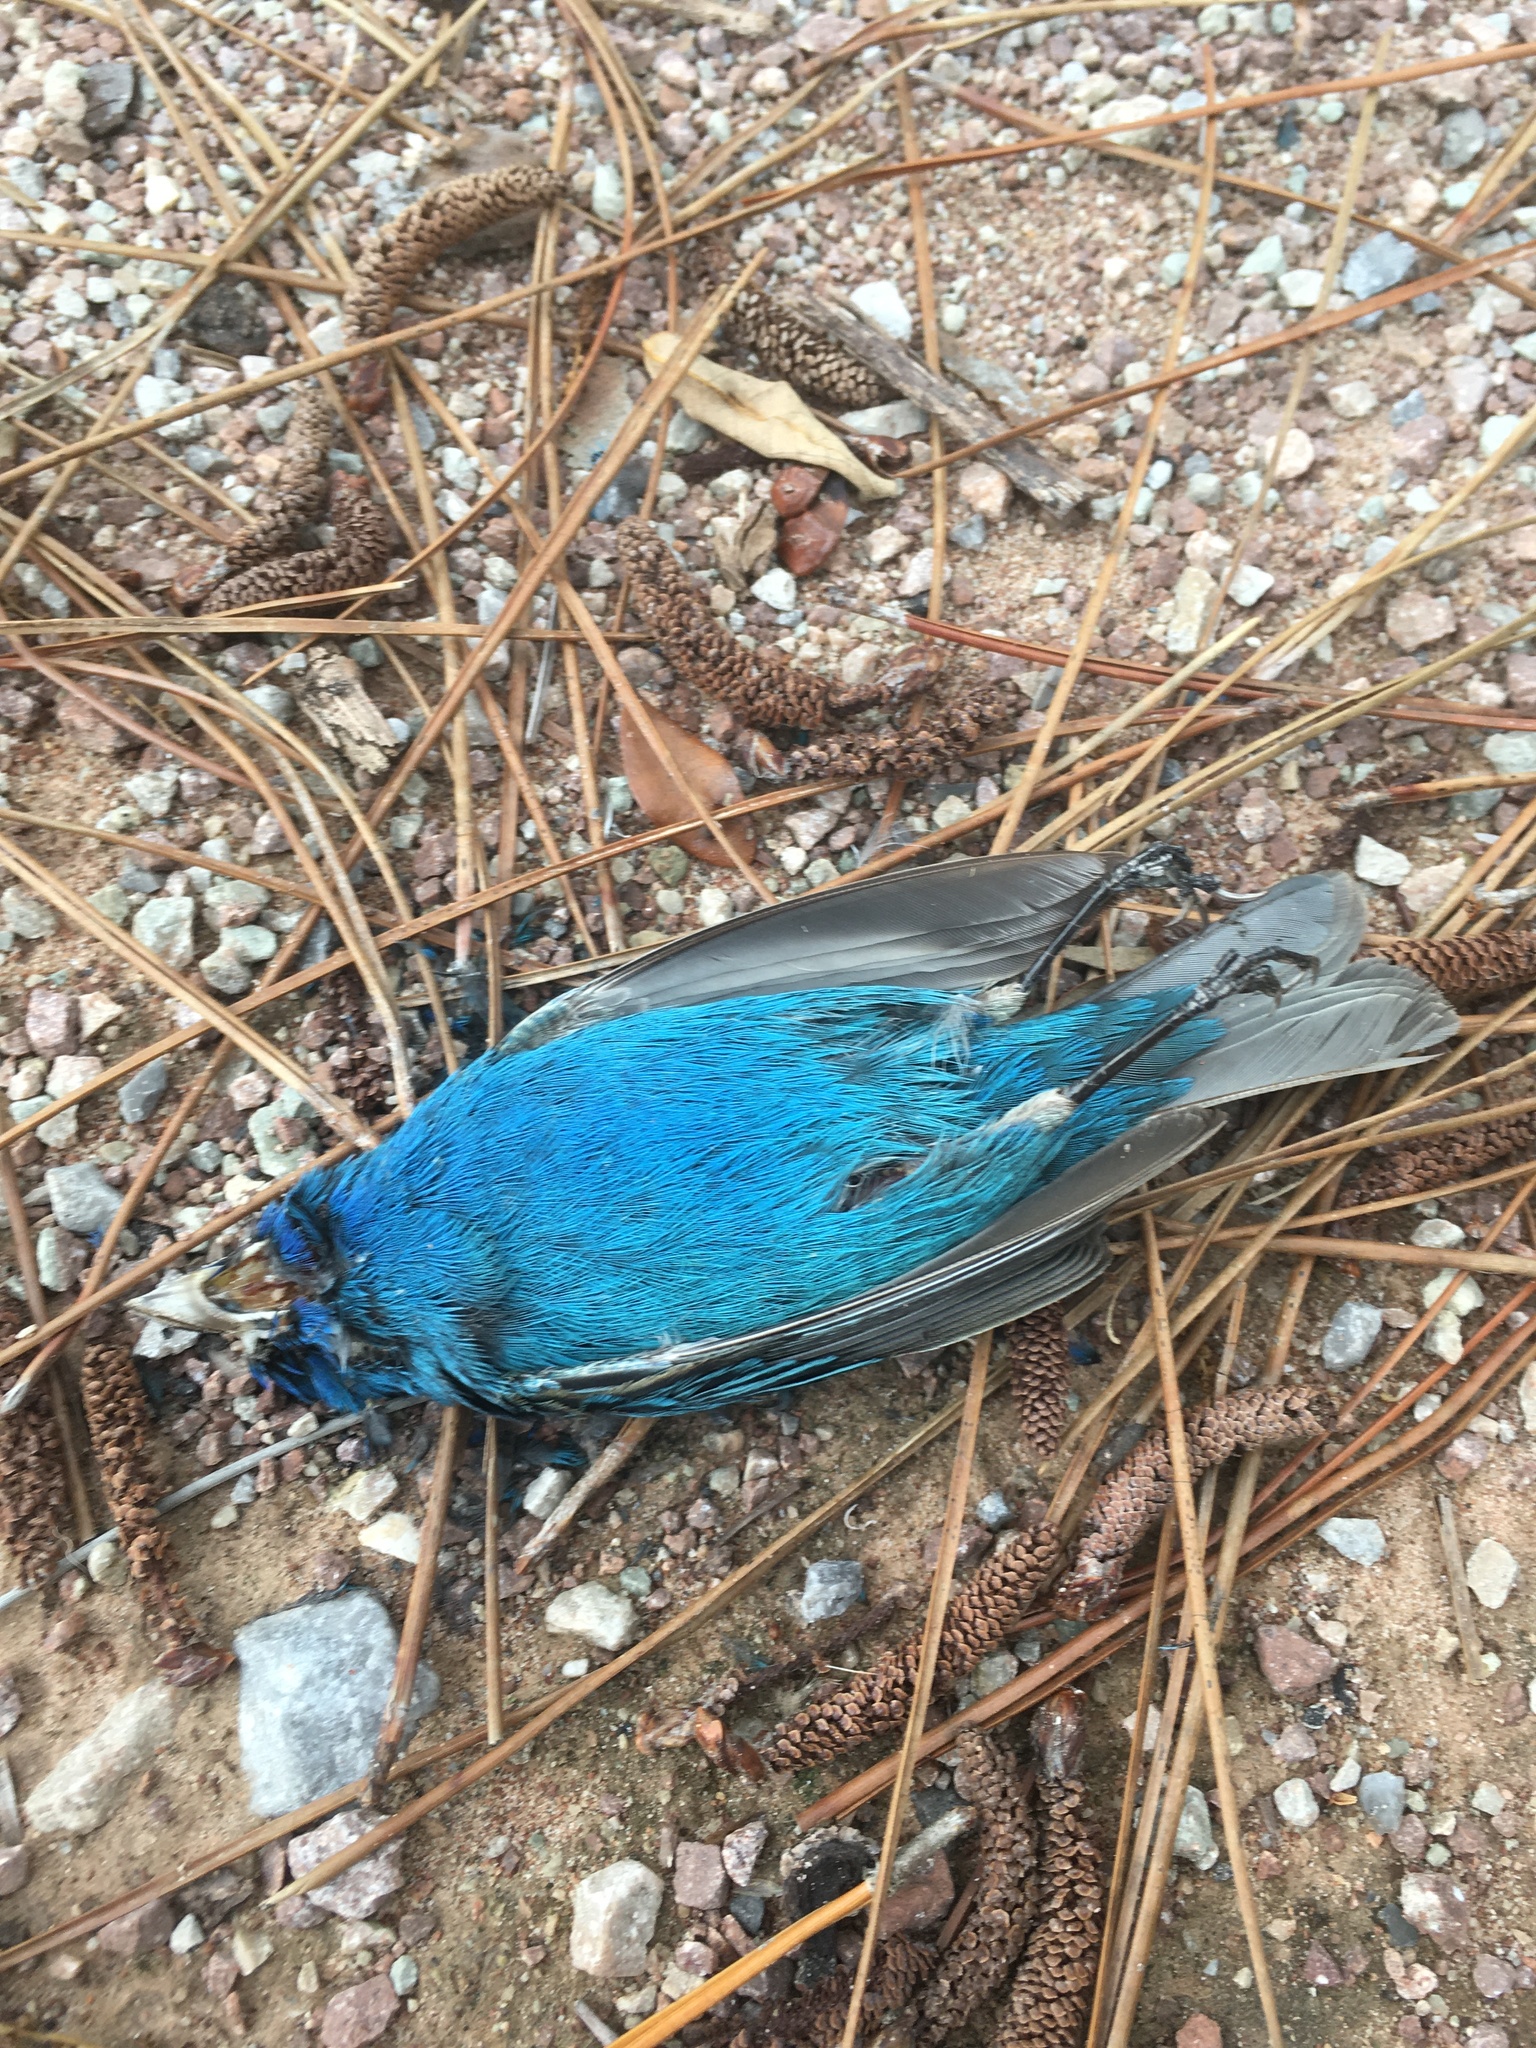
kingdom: Animalia
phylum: Chordata
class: Aves
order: Passeriformes
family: Cardinalidae
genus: Passerina
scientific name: Passerina cyanea
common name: Indigo bunting
